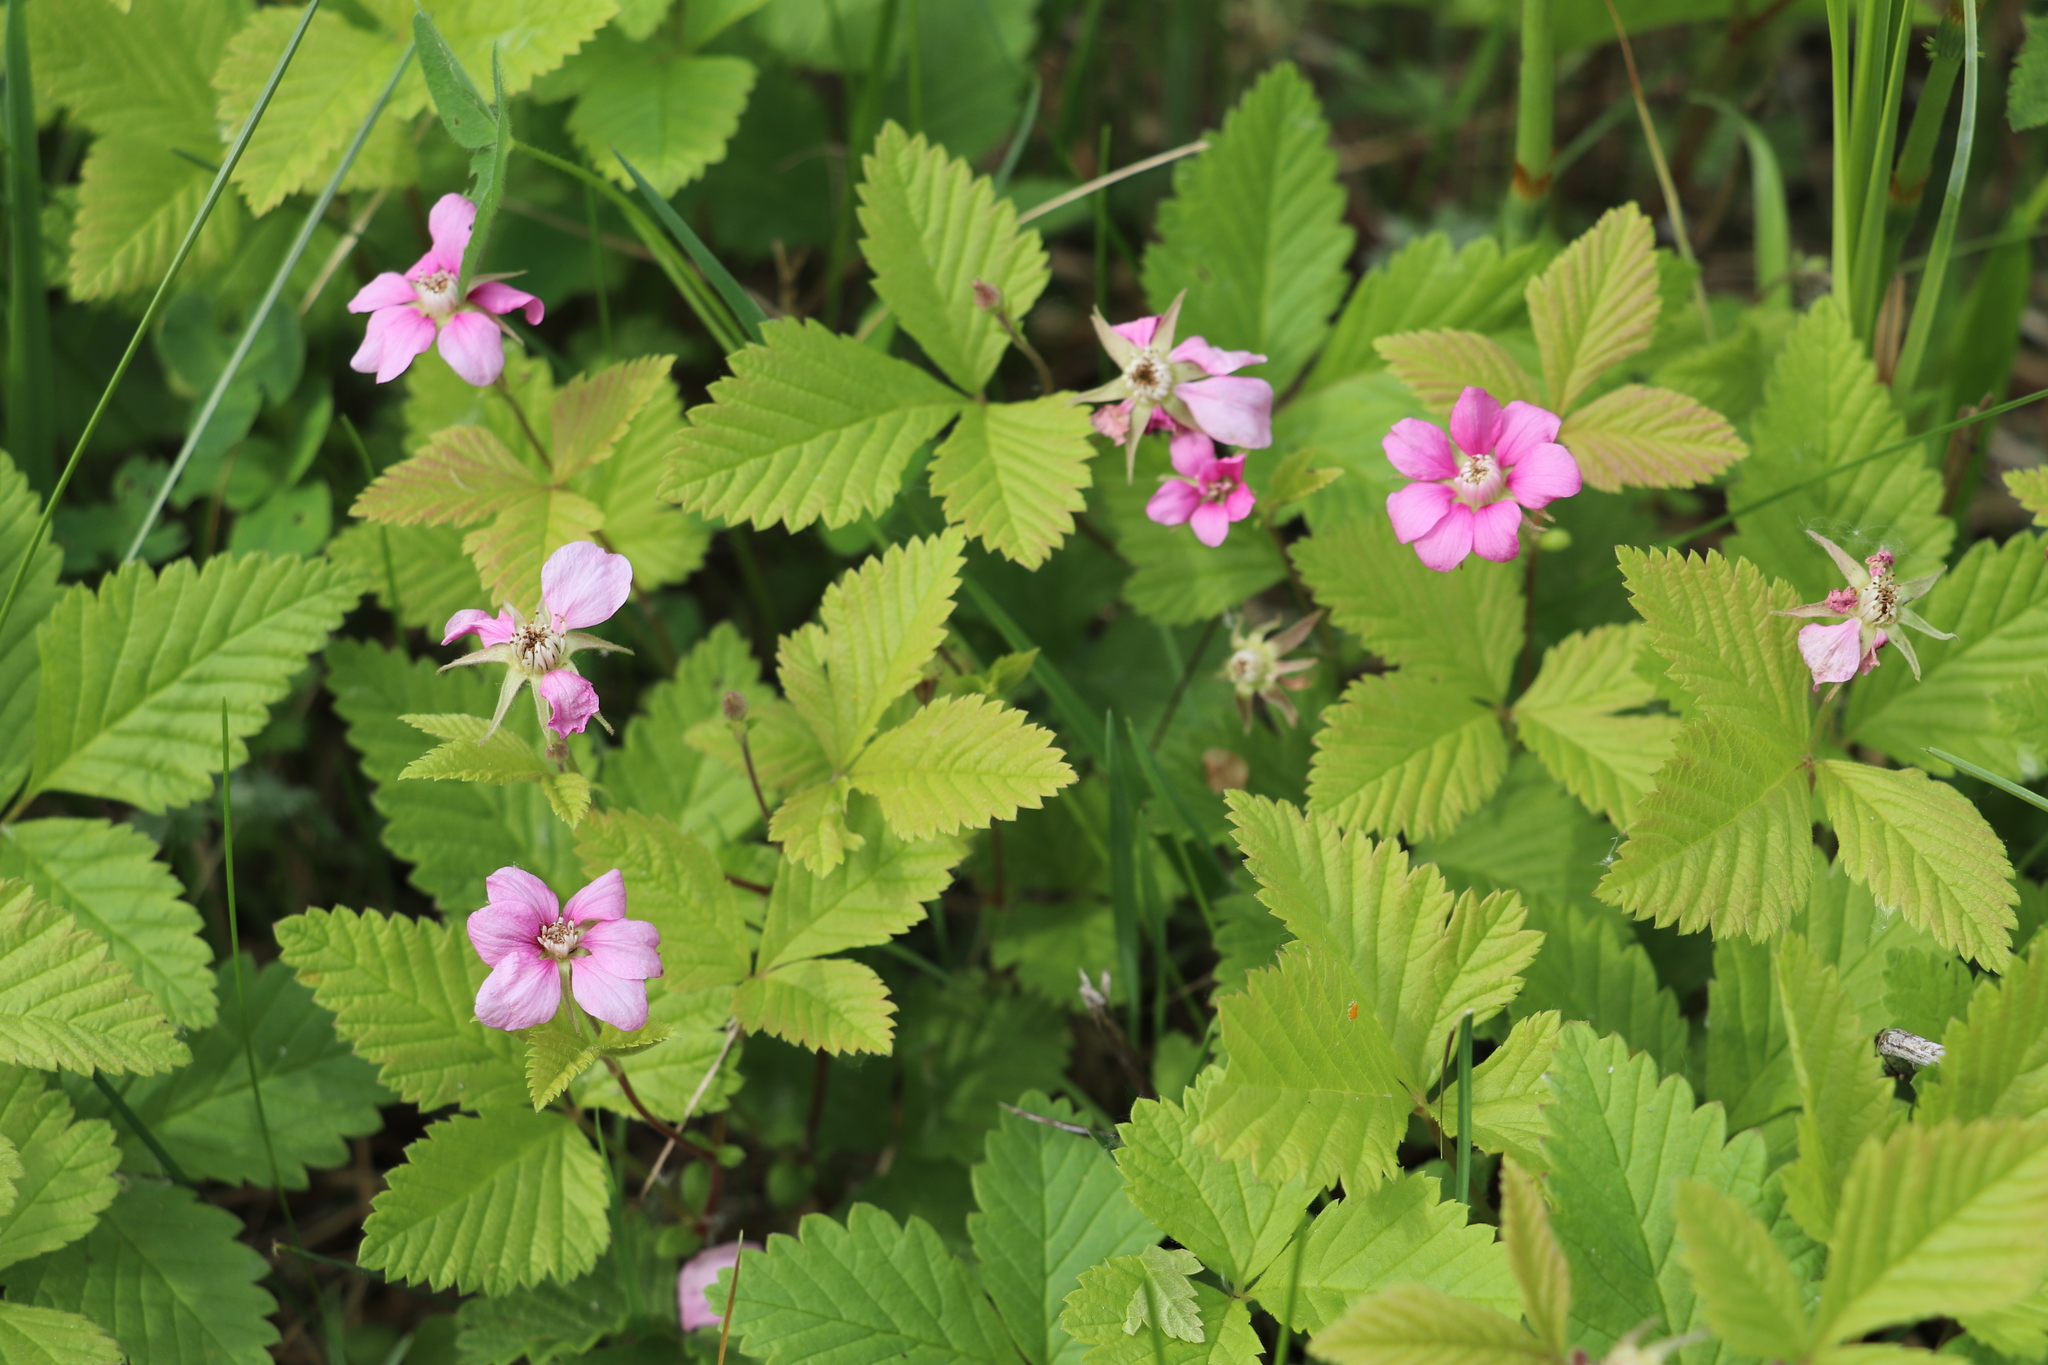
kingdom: Plantae
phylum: Tracheophyta
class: Magnoliopsida
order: Rosales
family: Rosaceae
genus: Rubus
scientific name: Rubus arcticus
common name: Arctic bramble
